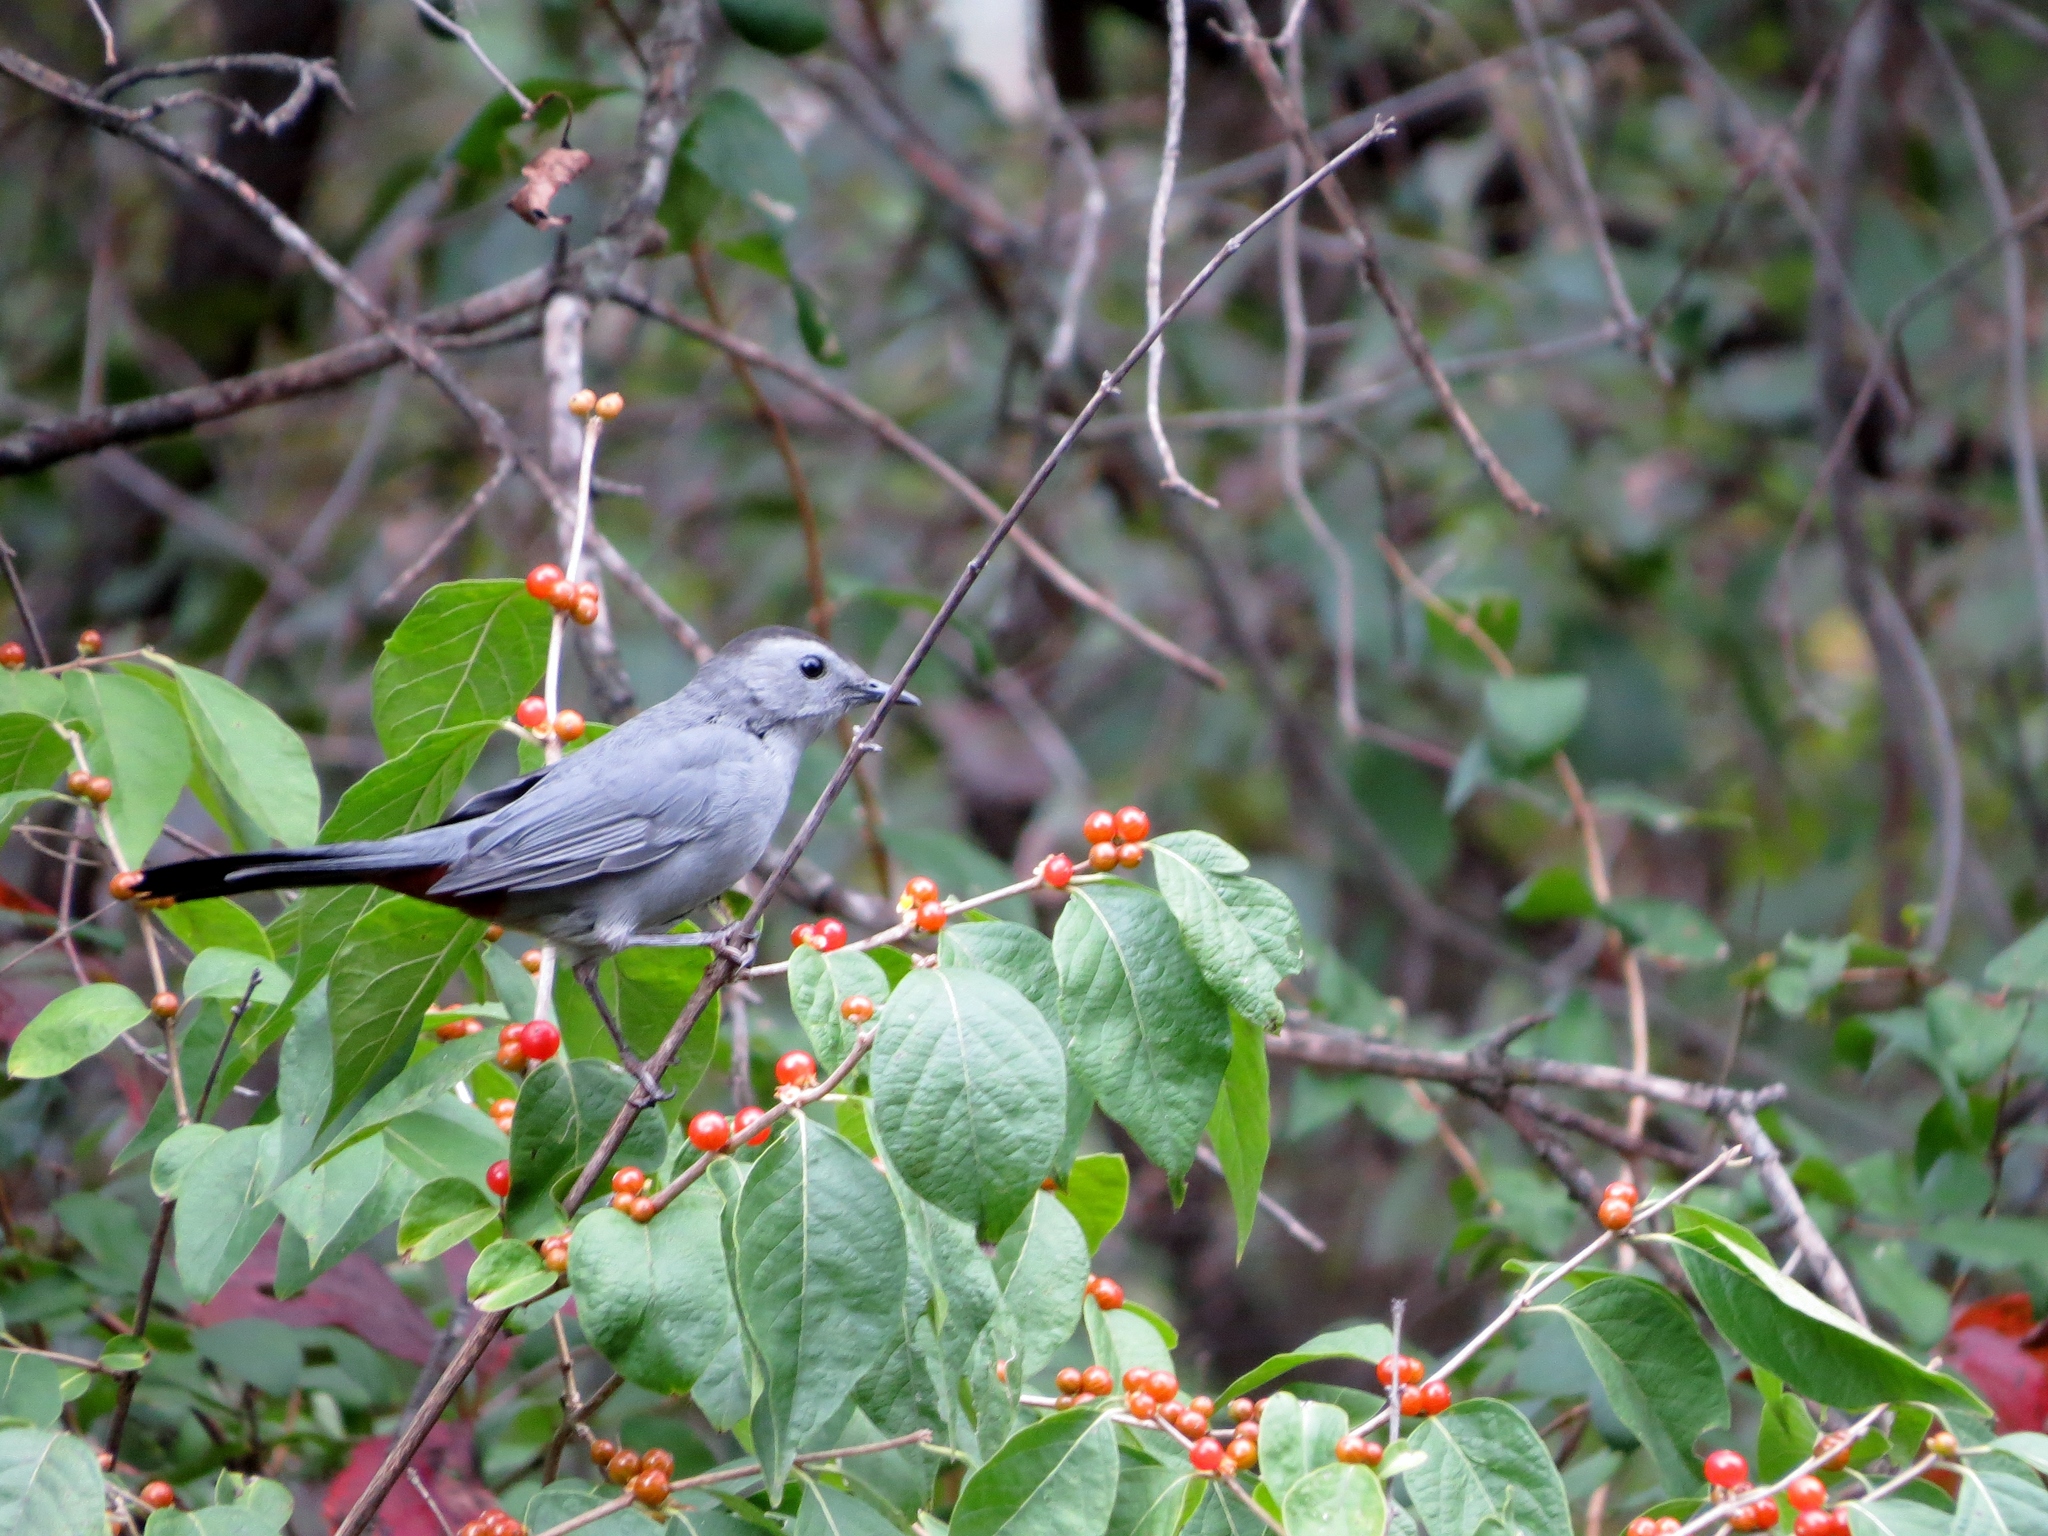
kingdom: Animalia
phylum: Chordata
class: Aves
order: Passeriformes
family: Mimidae
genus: Dumetella
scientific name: Dumetella carolinensis
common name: Gray catbird
